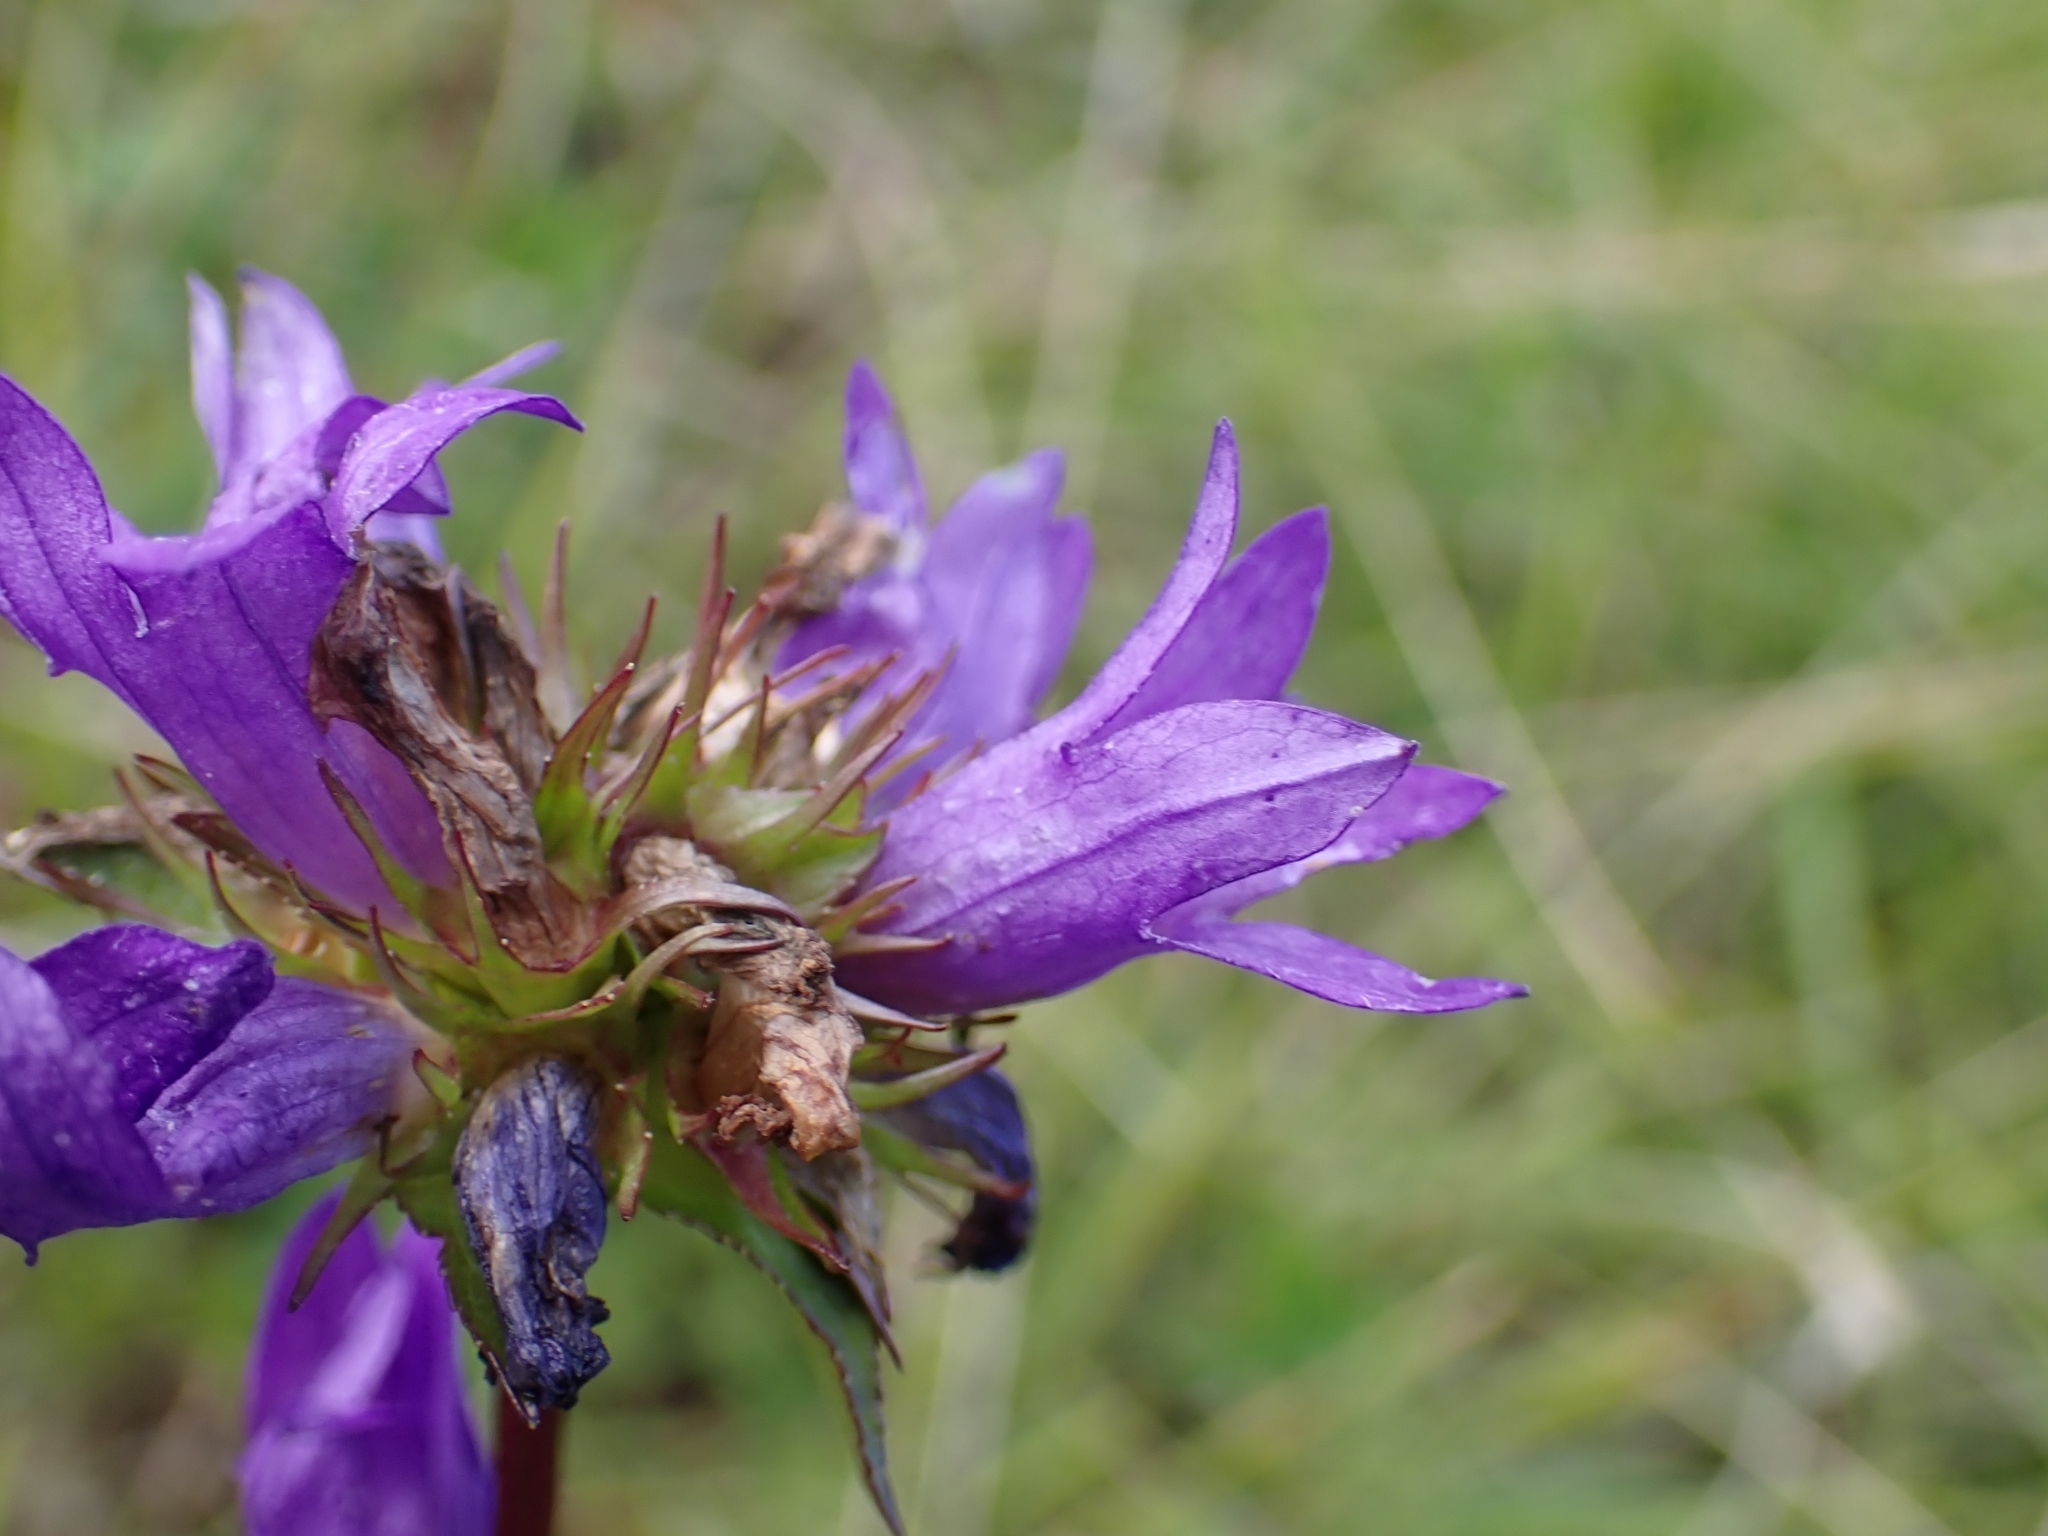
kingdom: Plantae
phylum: Tracheophyta
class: Magnoliopsida
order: Asterales
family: Campanulaceae
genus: Campanula
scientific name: Campanula glomerata
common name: Clustered bellflower
